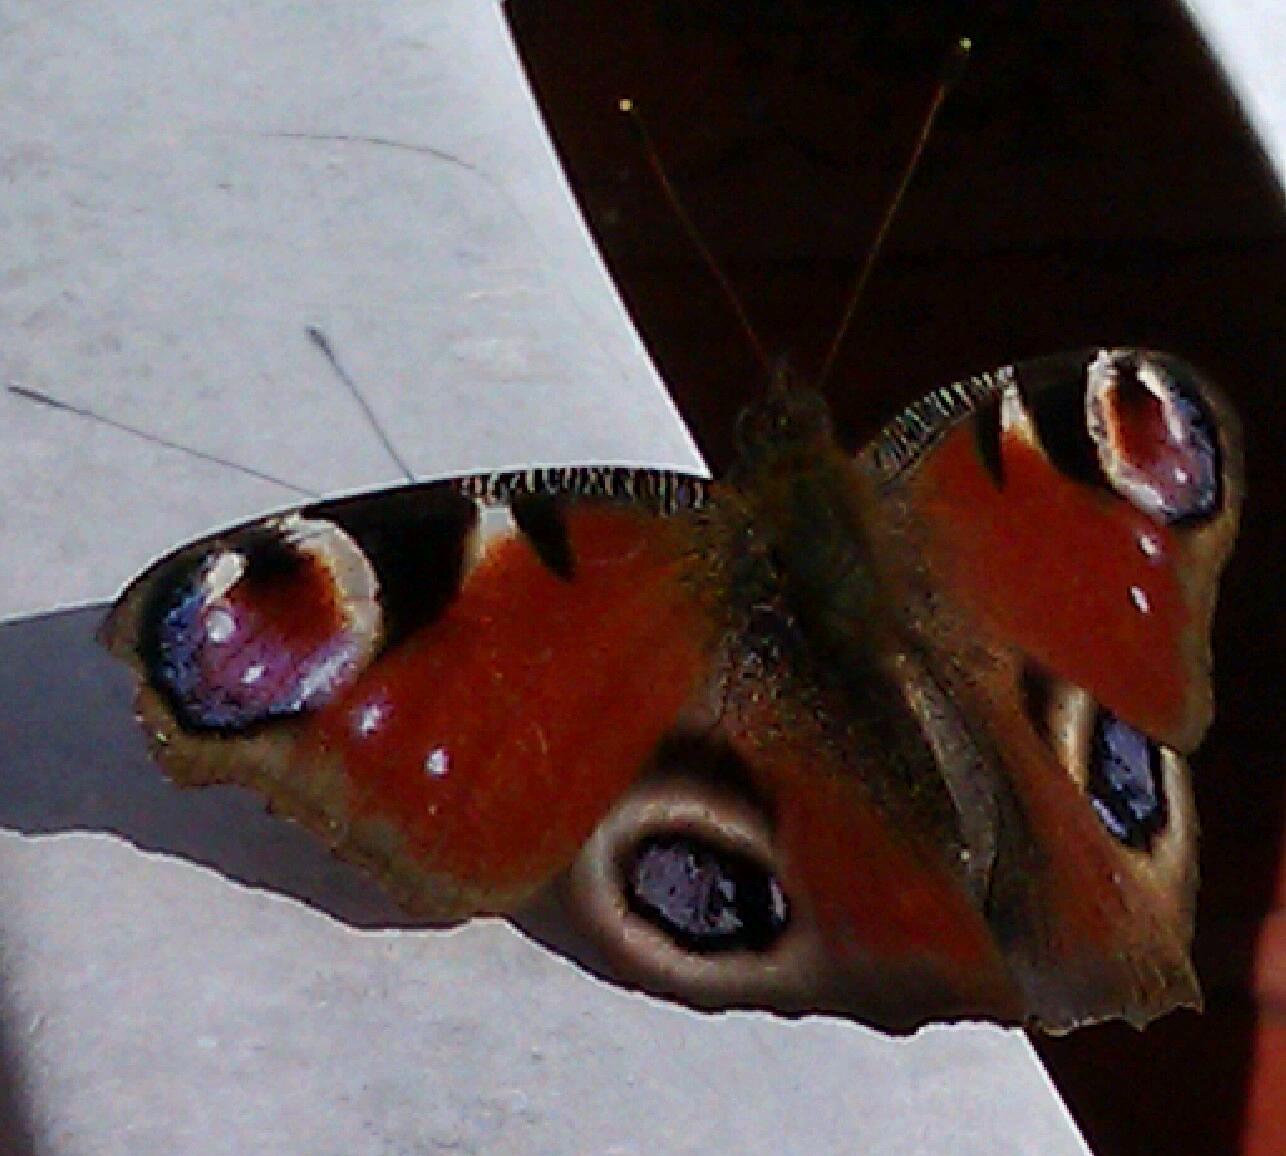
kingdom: Animalia
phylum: Arthropoda
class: Insecta
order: Lepidoptera
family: Nymphalidae
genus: Aglais
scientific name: Aglais io
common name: Peacock
